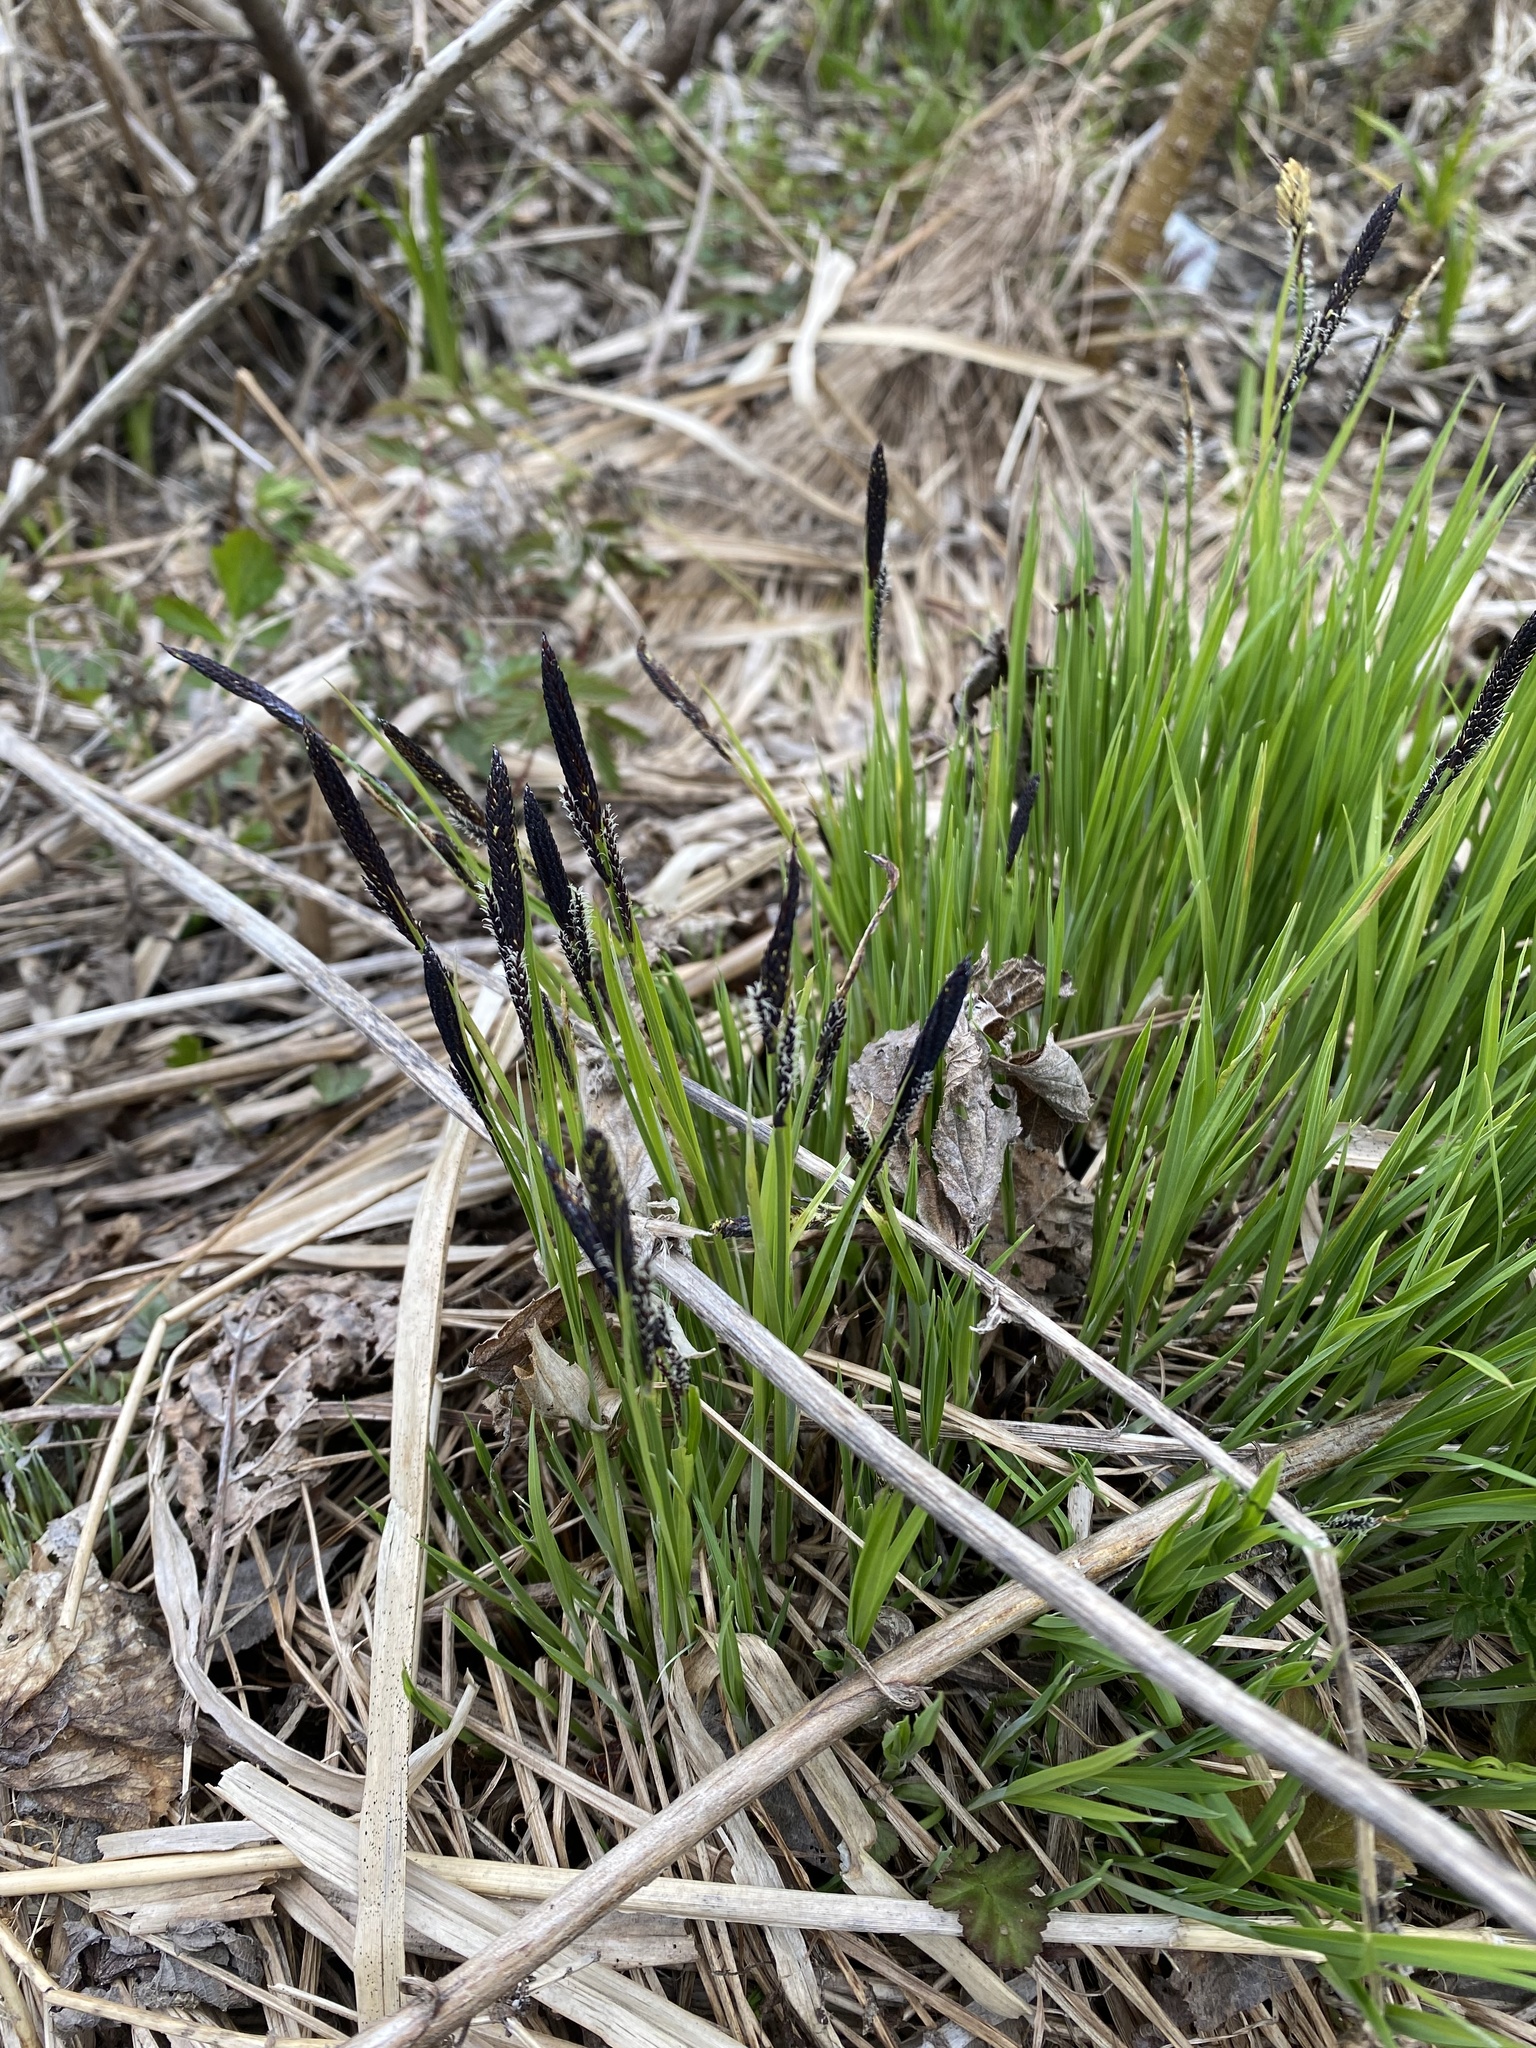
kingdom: Plantae
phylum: Tracheophyta
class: Liliopsida
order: Poales
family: Cyperaceae
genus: Carex
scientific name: Carex nigra
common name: Common sedge
